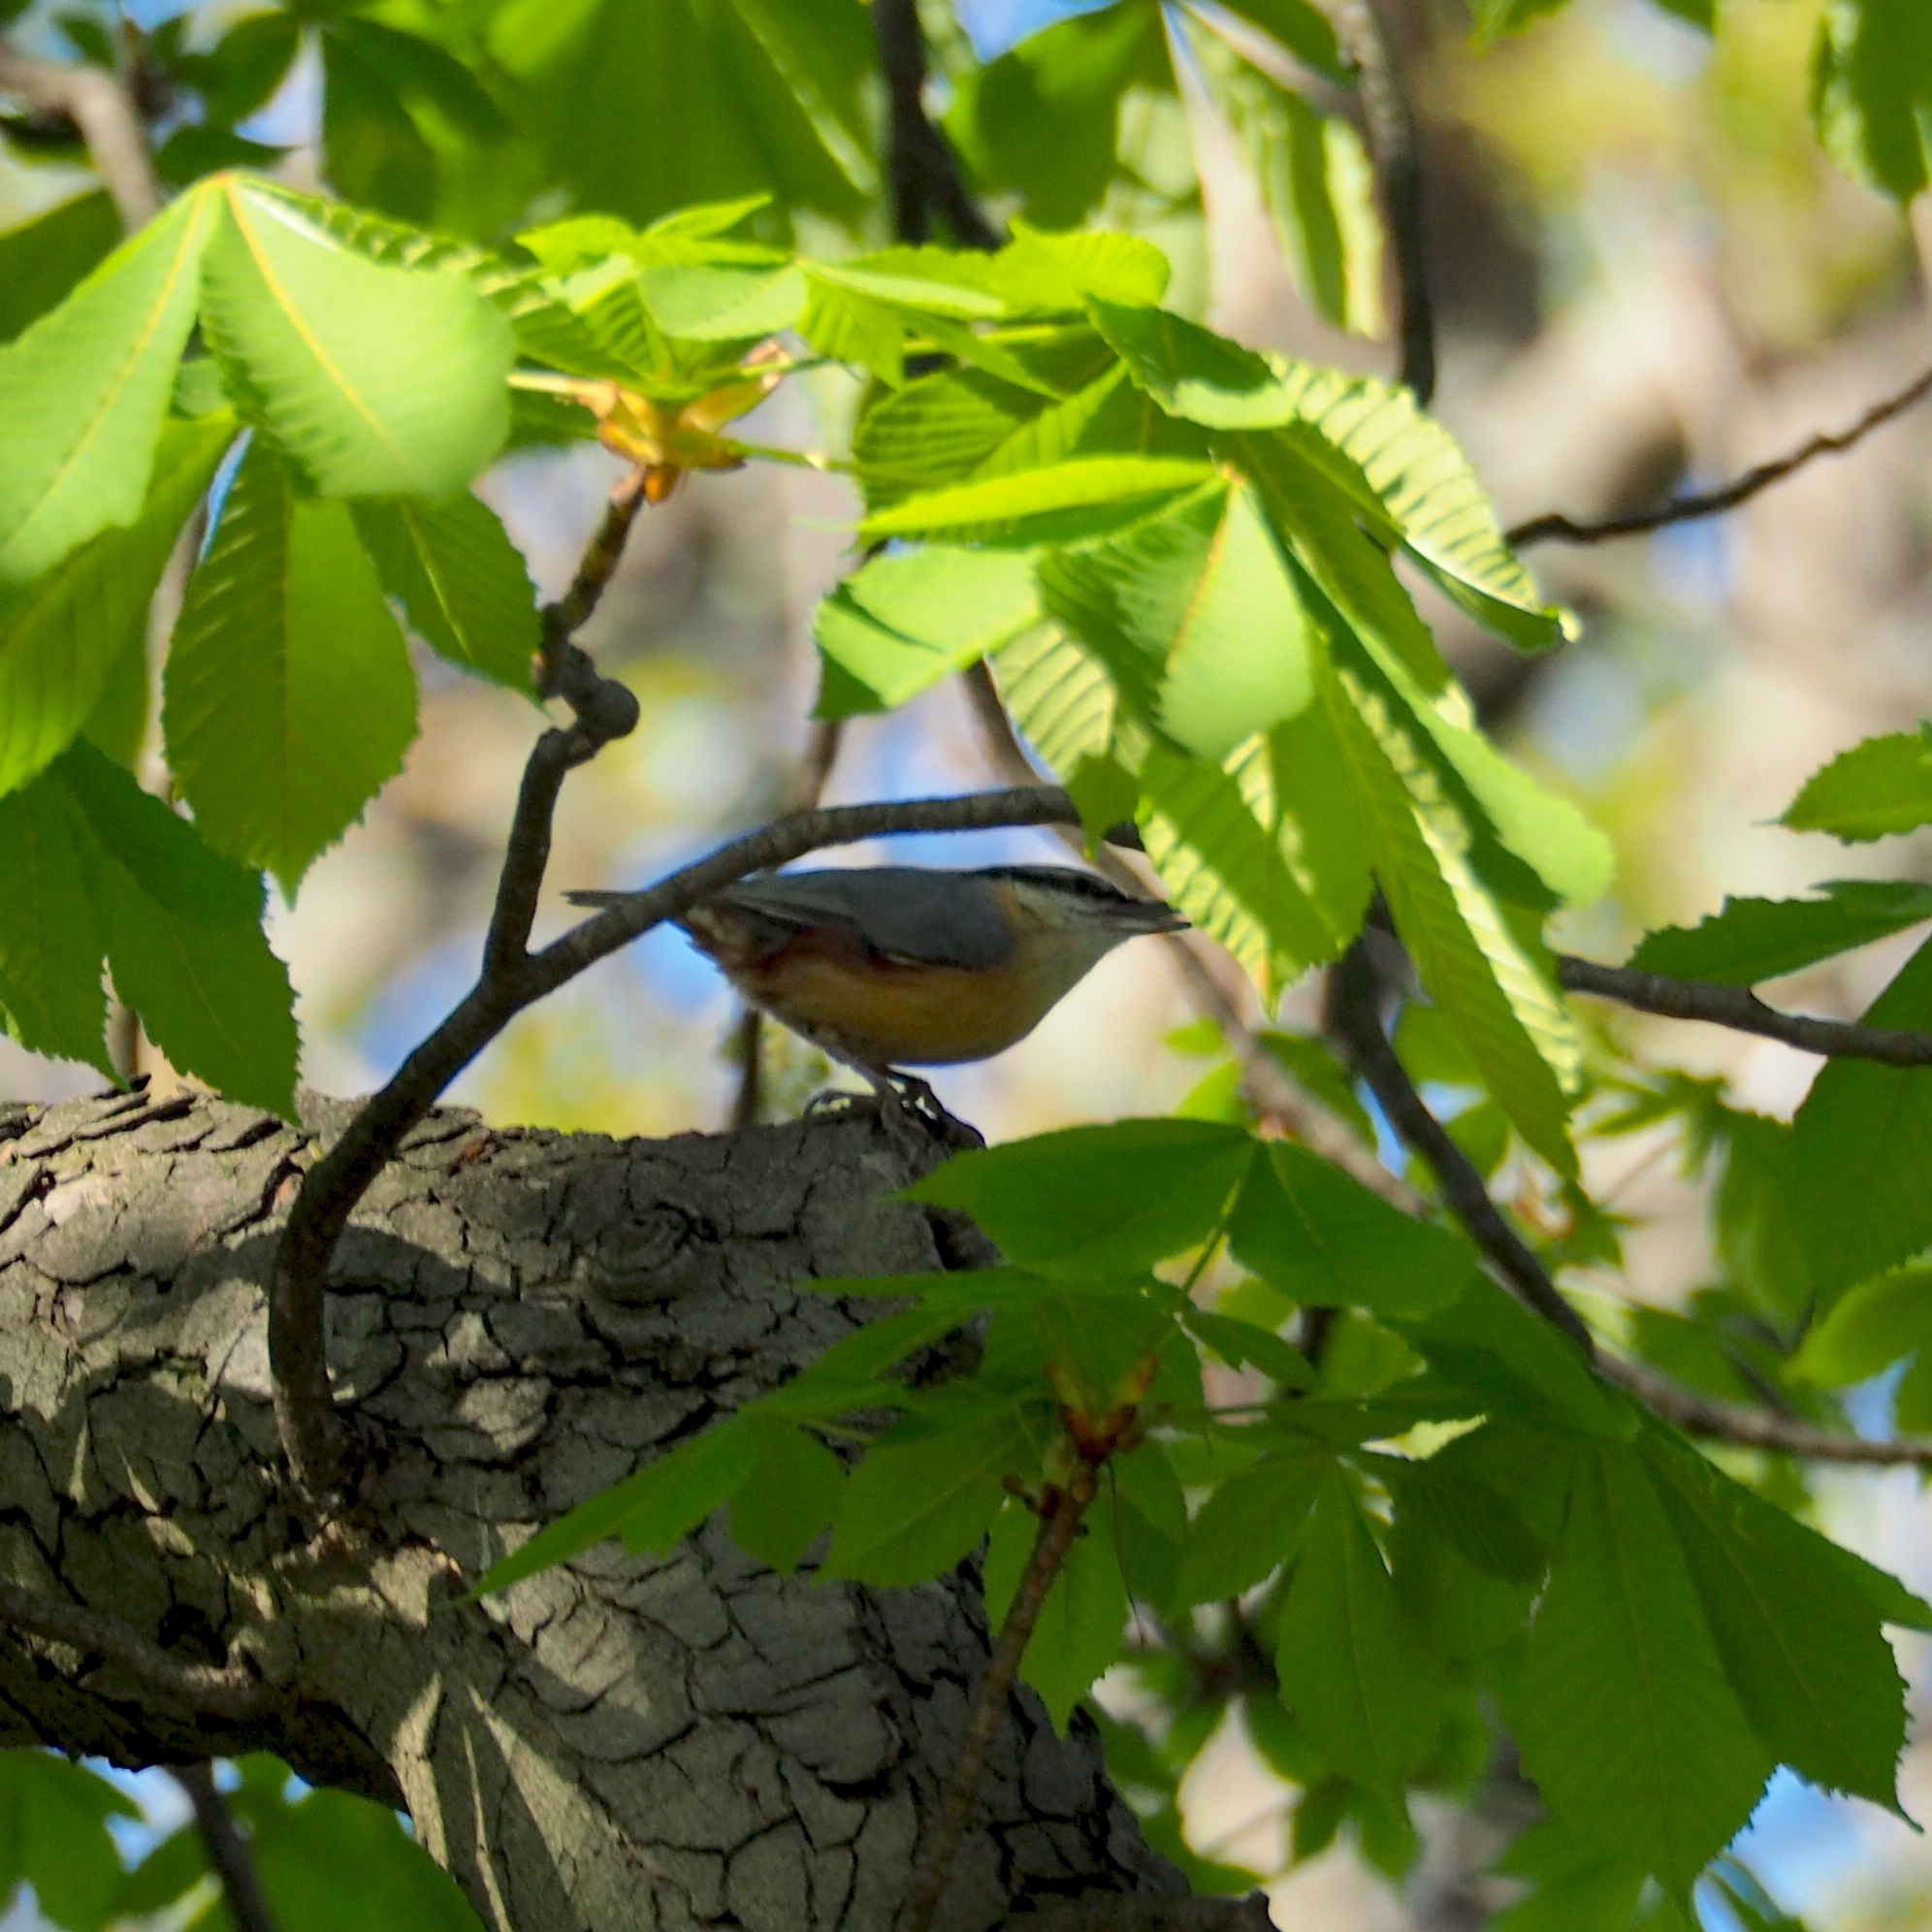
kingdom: Animalia
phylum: Chordata
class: Aves
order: Passeriformes
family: Sittidae
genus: Sitta
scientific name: Sitta europaea
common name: Eurasian nuthatch
